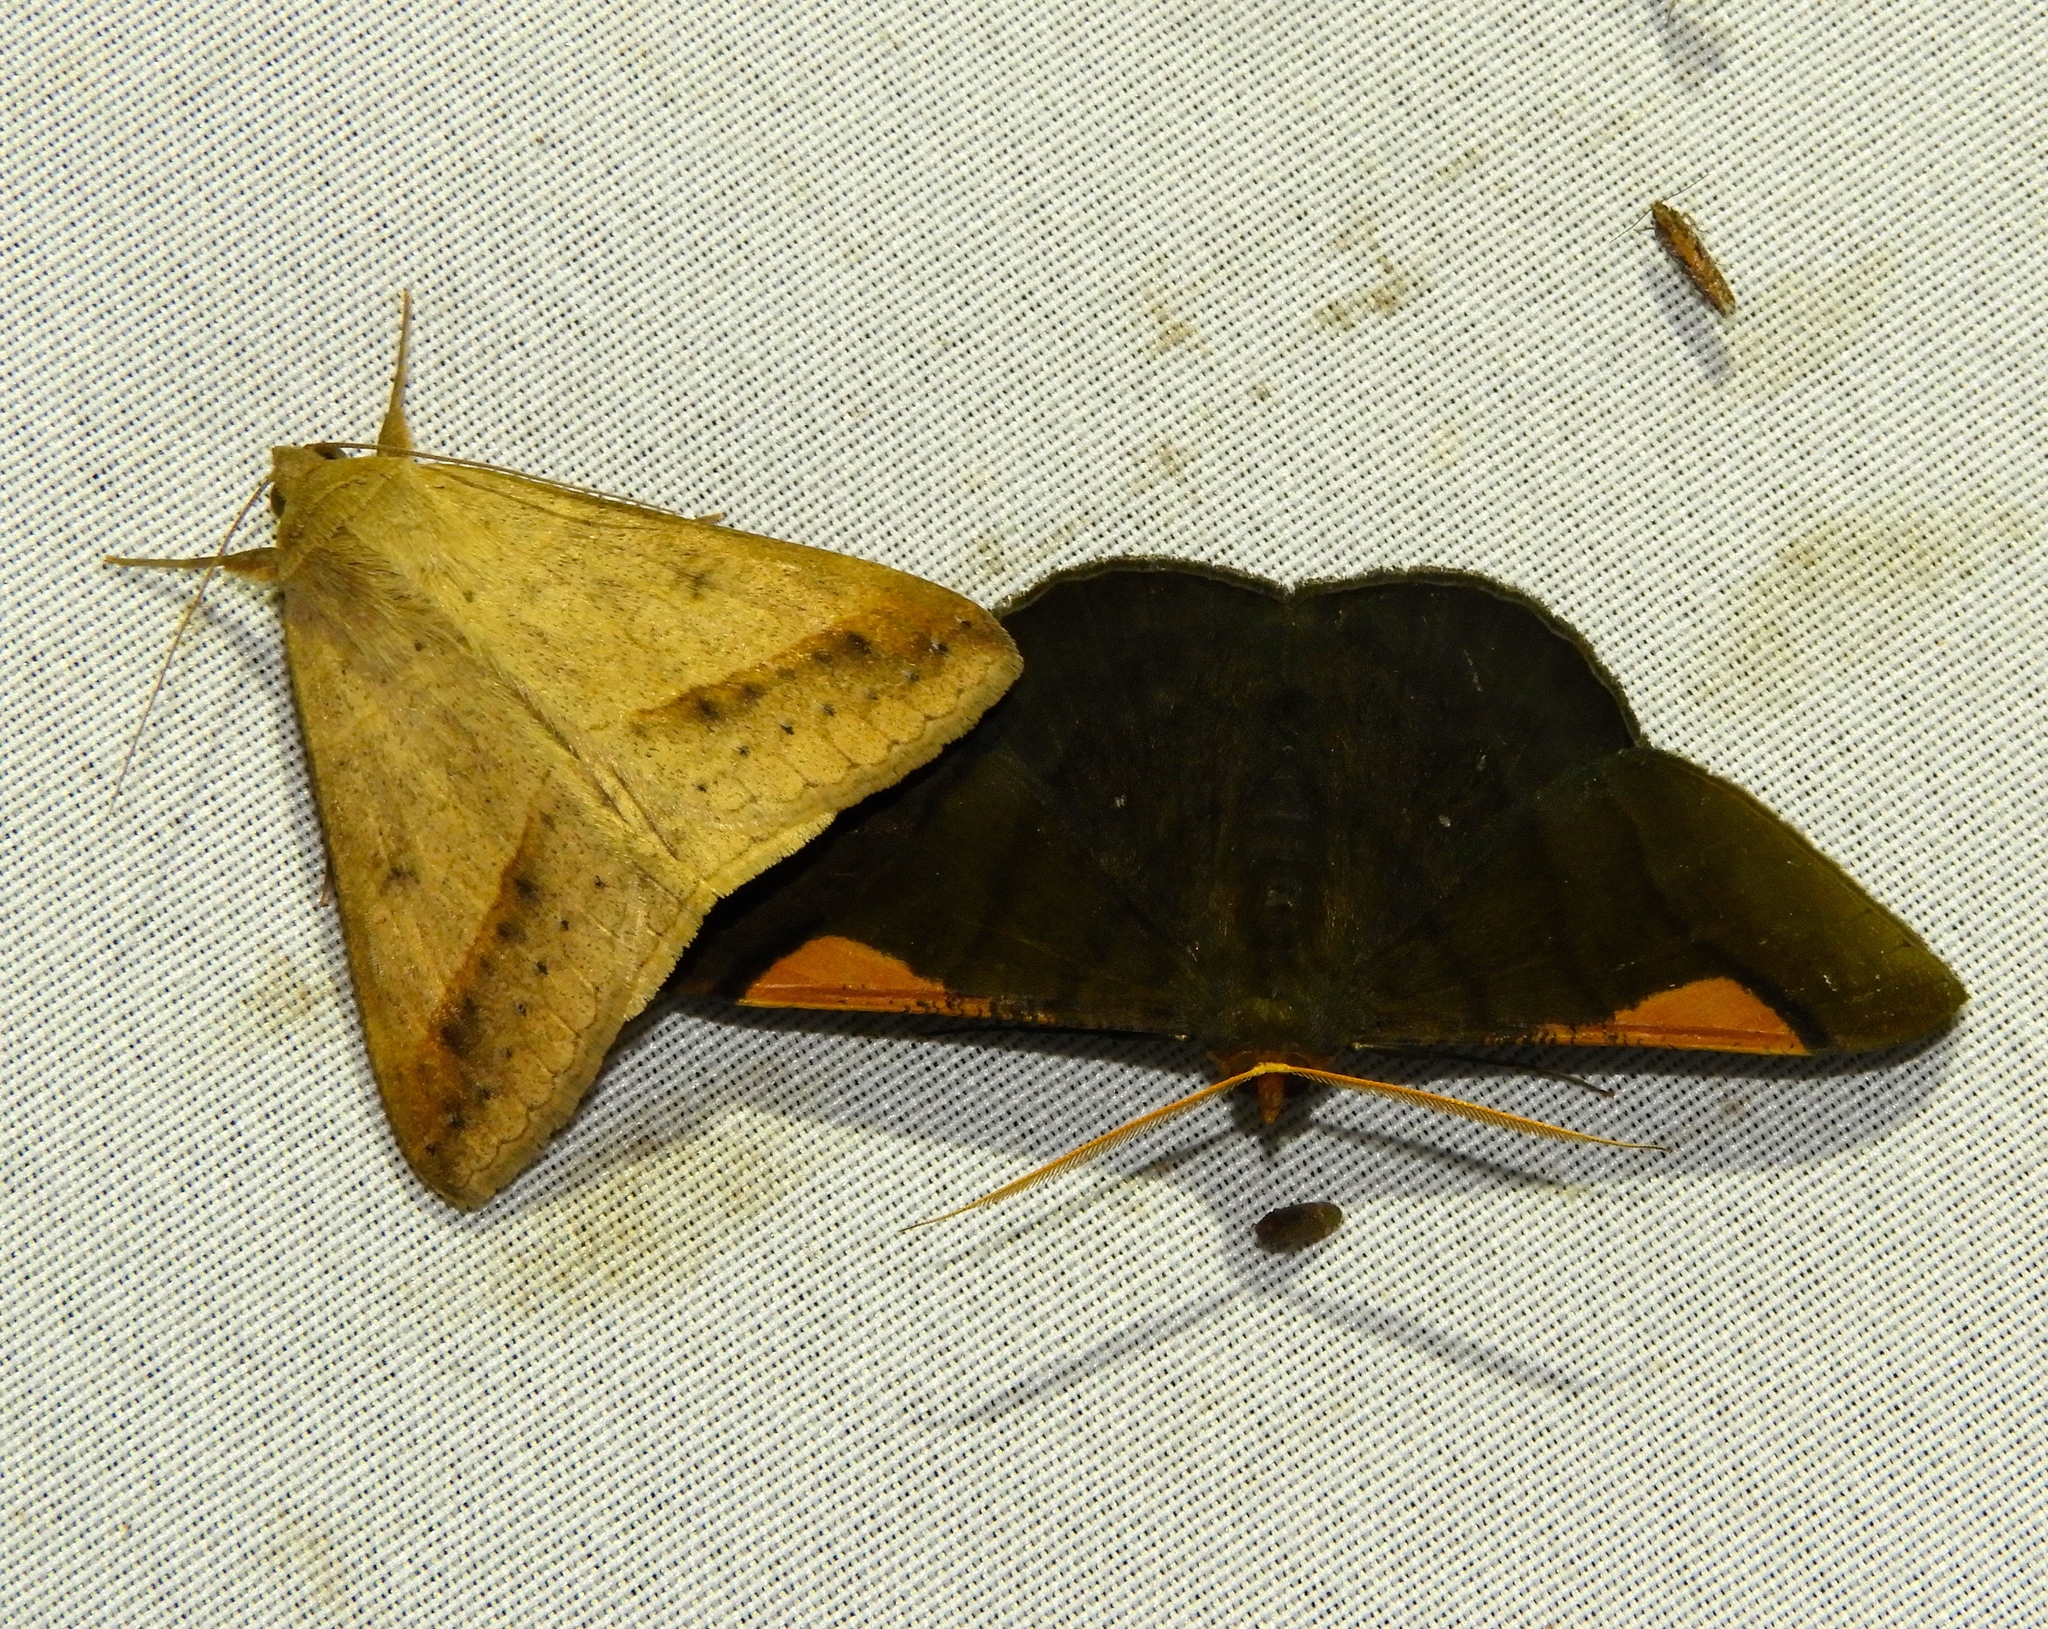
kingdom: Animalia
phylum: Arthropoda
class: Insecta
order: Lepidoptera
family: Erebidae
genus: Mocis
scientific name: Mocis latipes
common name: Striped grass looper
